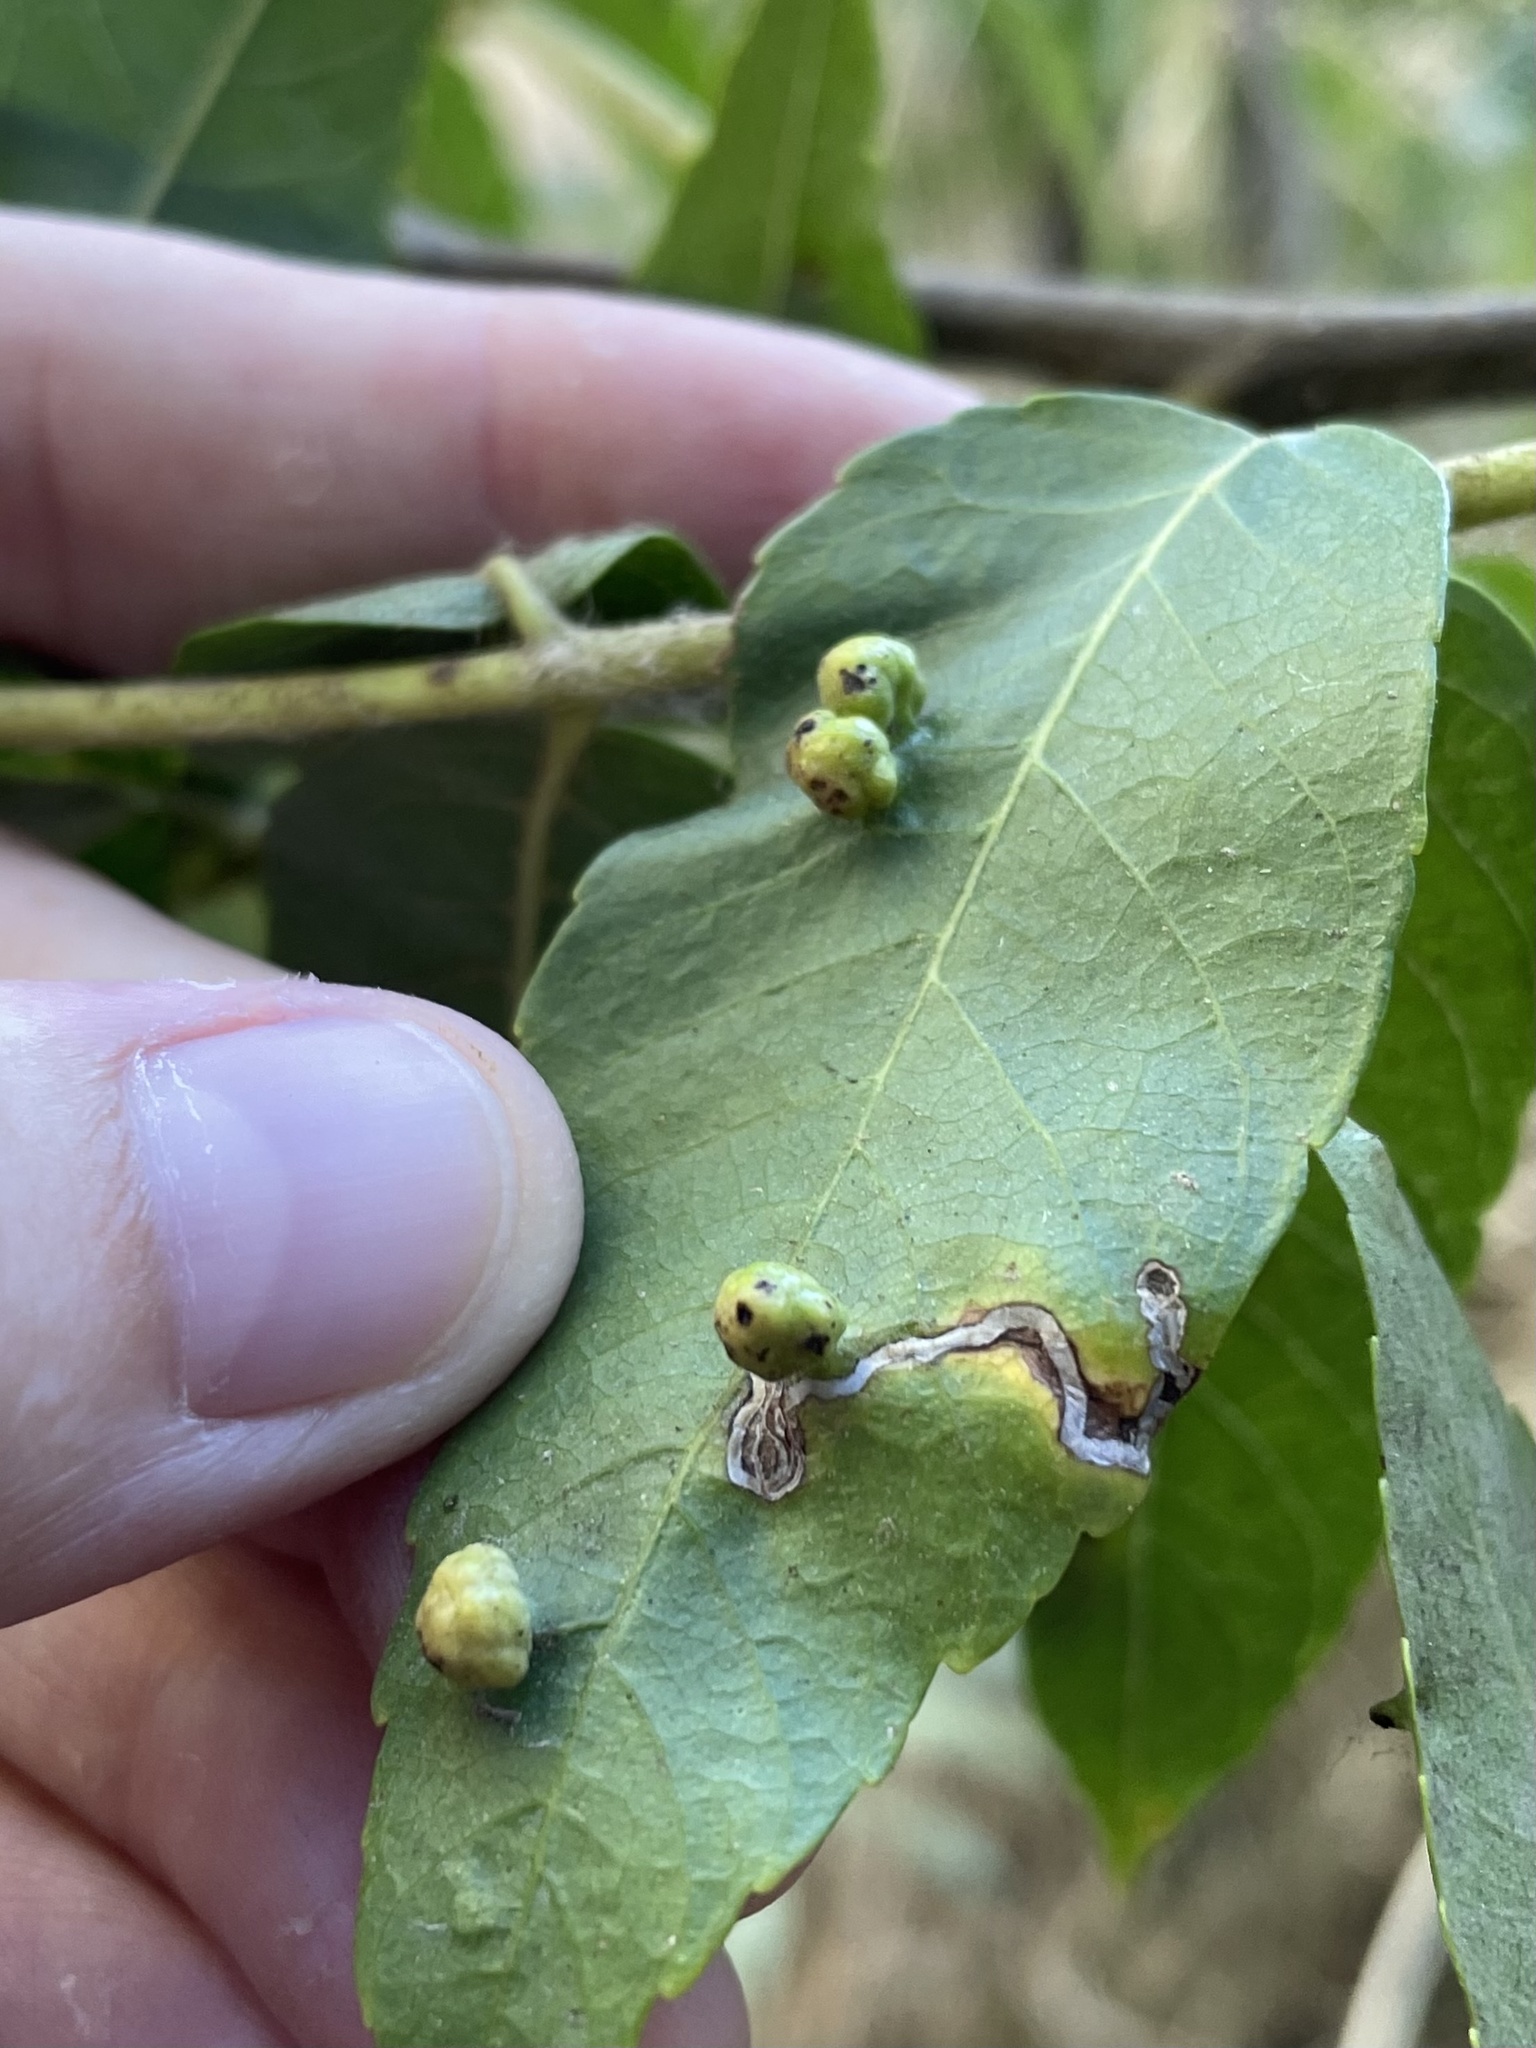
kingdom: Animalia
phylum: Arthropoda
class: Arachnida
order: Trombidiformes
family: Eriophyidae
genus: Aceria
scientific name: Aceria brachytarsus
